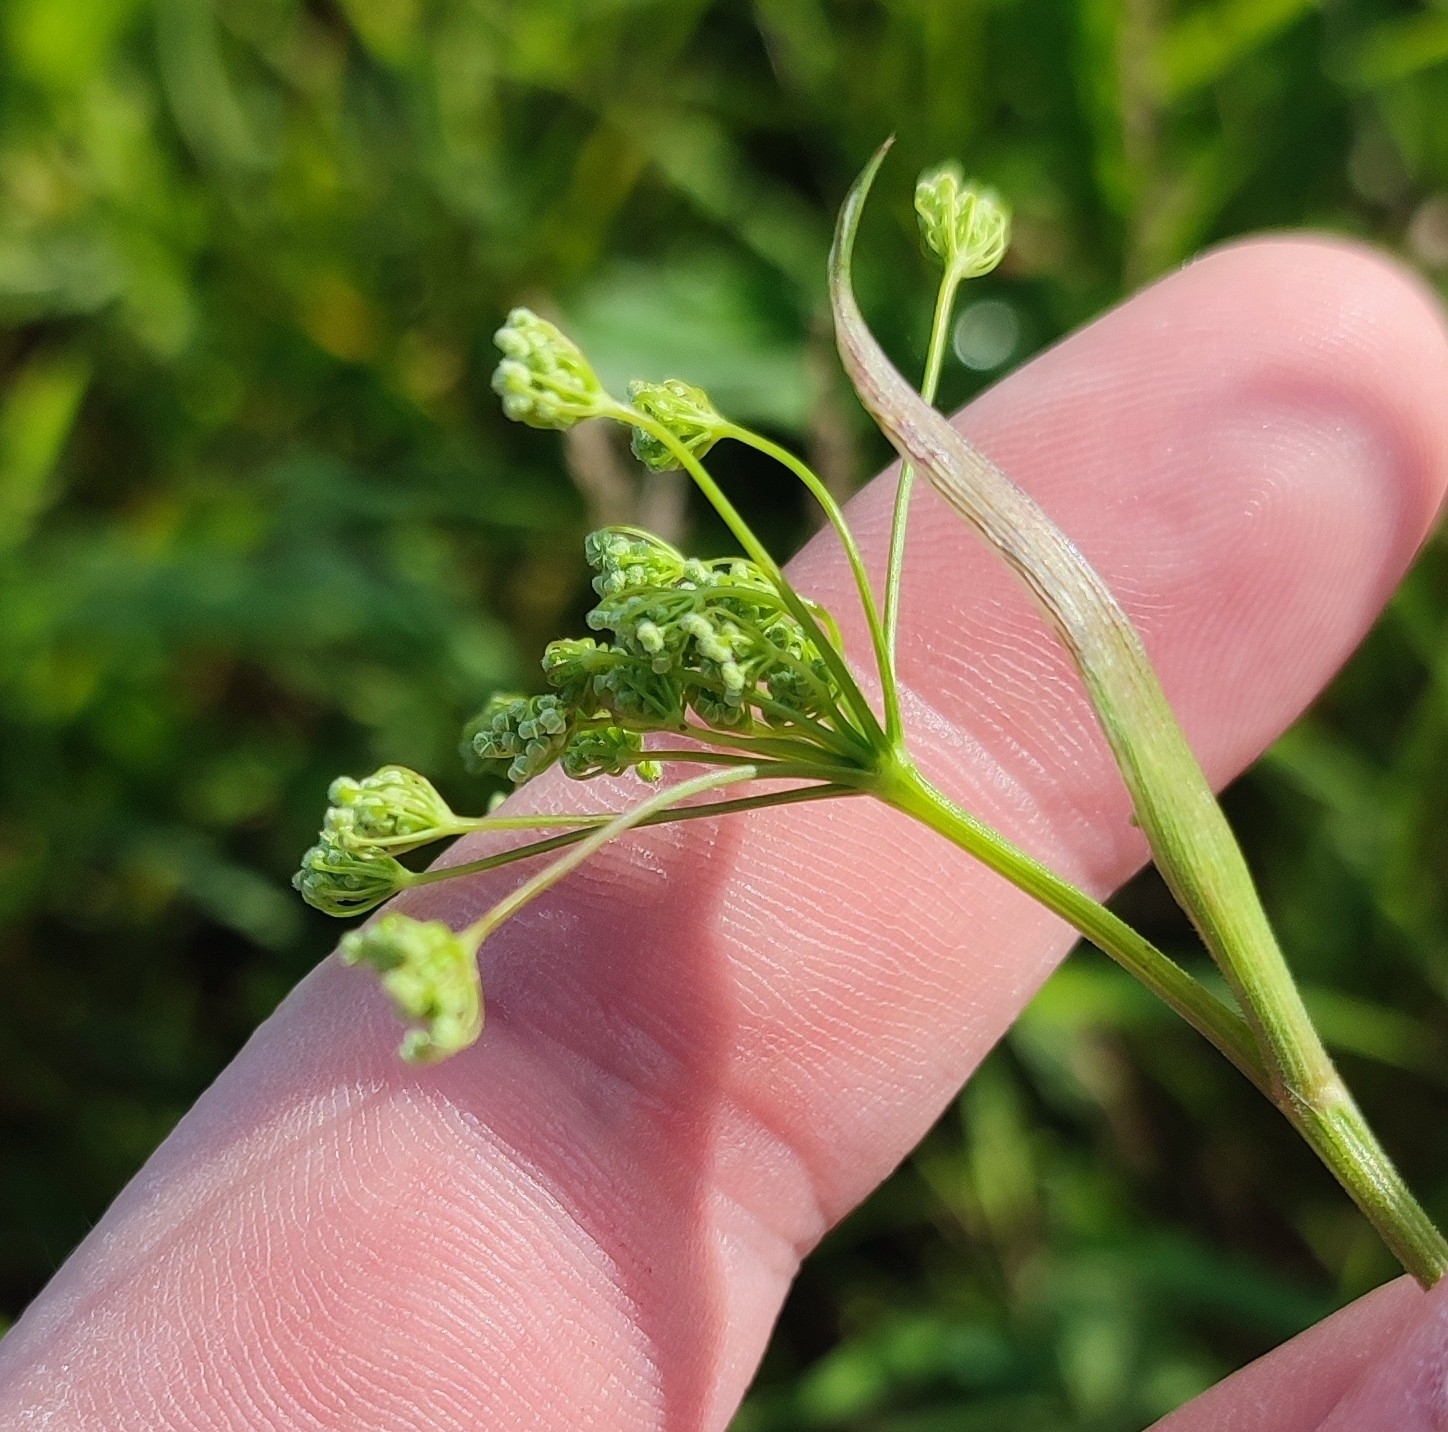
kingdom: Plantae
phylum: Tracheophyta
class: Magnoliopsida
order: Apiales
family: Apiaceae
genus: Pimpinella
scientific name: Pimpinella saxifraga
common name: Burnet-saxifrage
